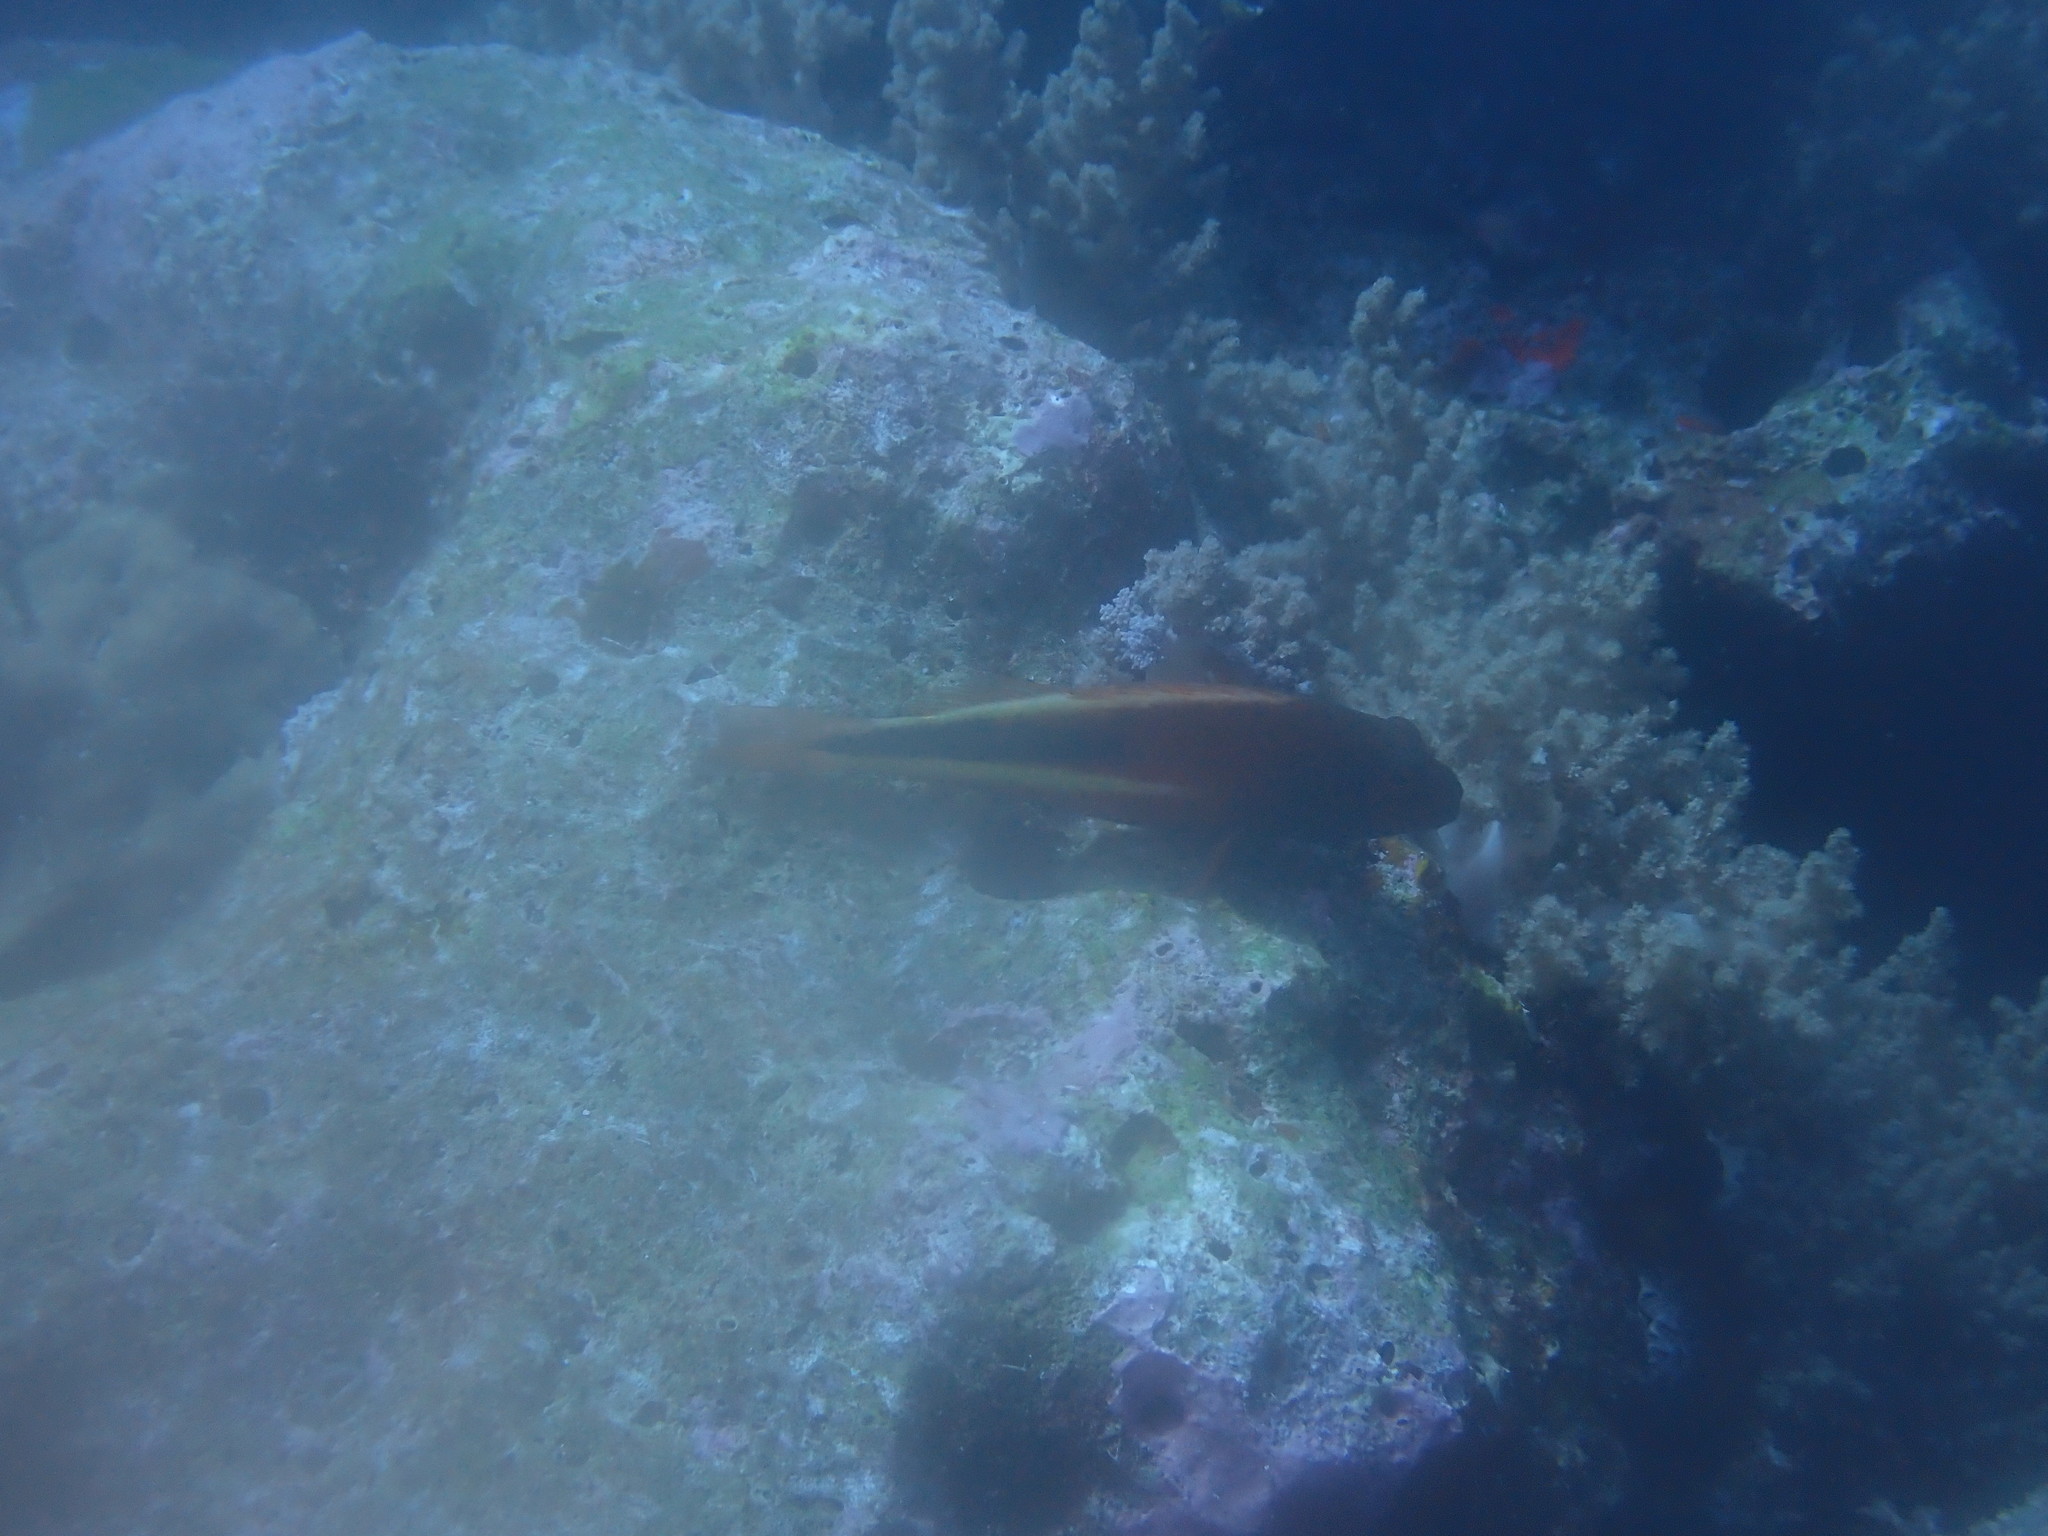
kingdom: Animalia
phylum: Chordata
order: Perciformes
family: Cirrhitidae
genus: Paracirrhites
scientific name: Paracirrhites forsteri
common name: Freckled hawkfish
